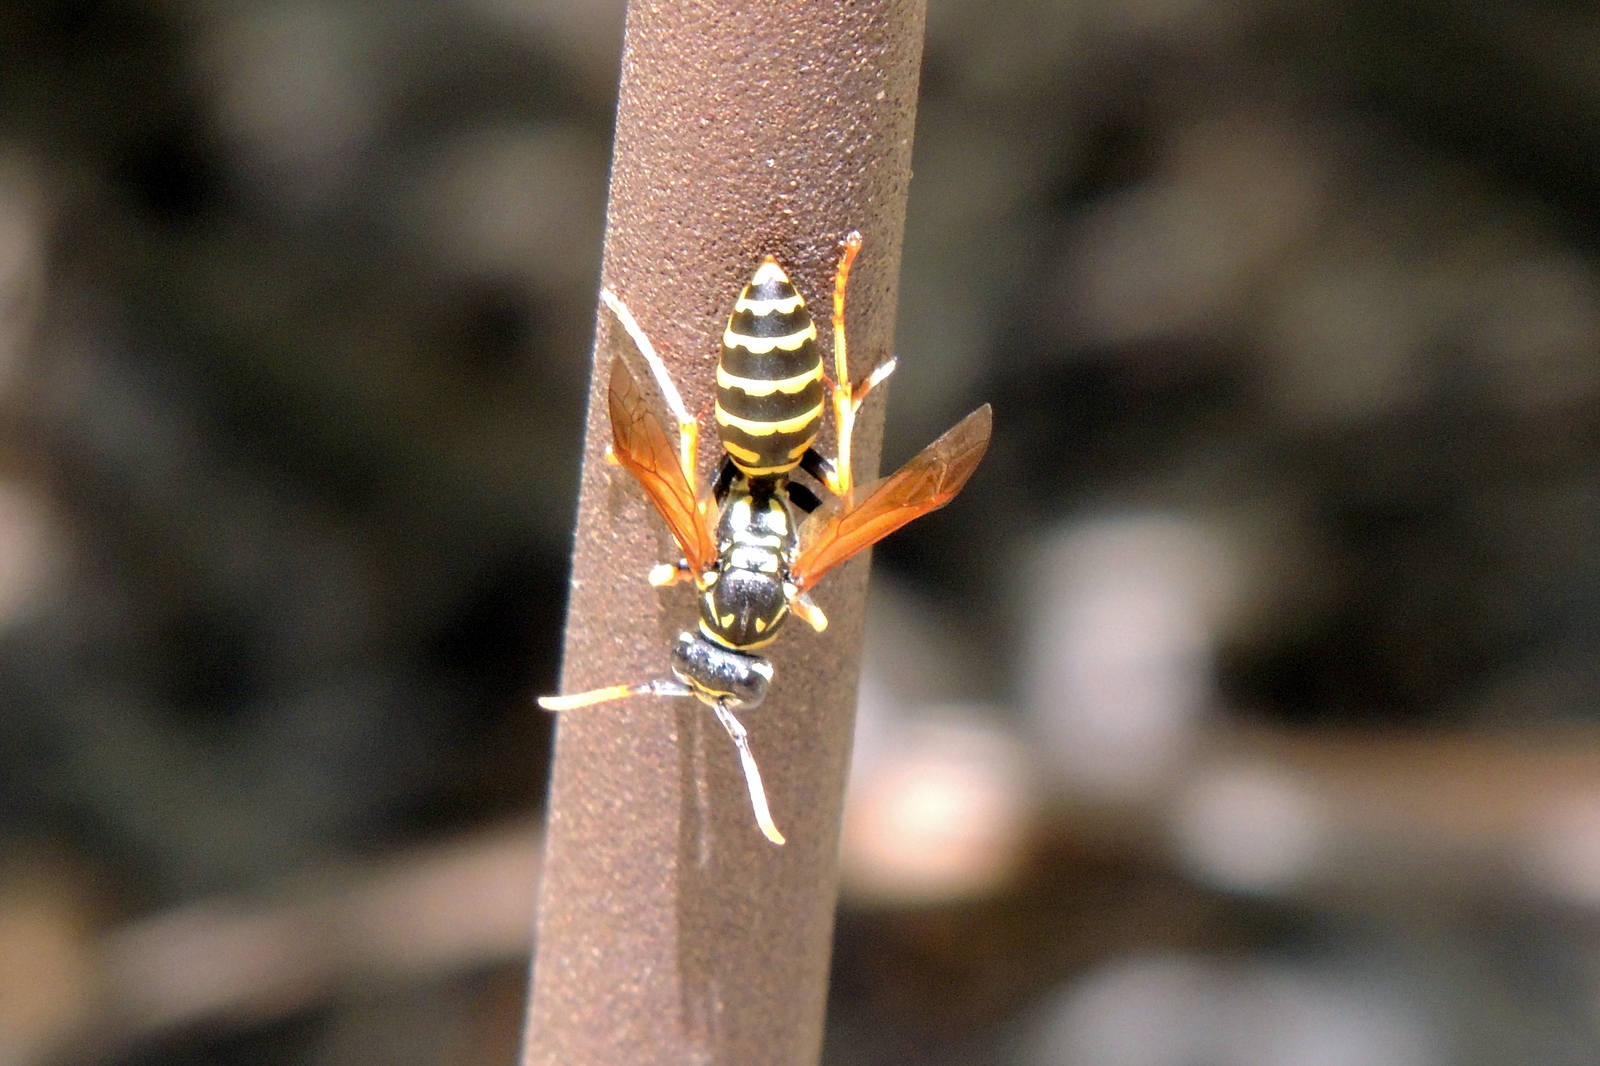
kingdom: Animalia
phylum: Arthropoda
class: Insecta
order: Hymenoptera
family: Eumenidae
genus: Polistes
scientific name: Polistes dominula
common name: Paper wasp
